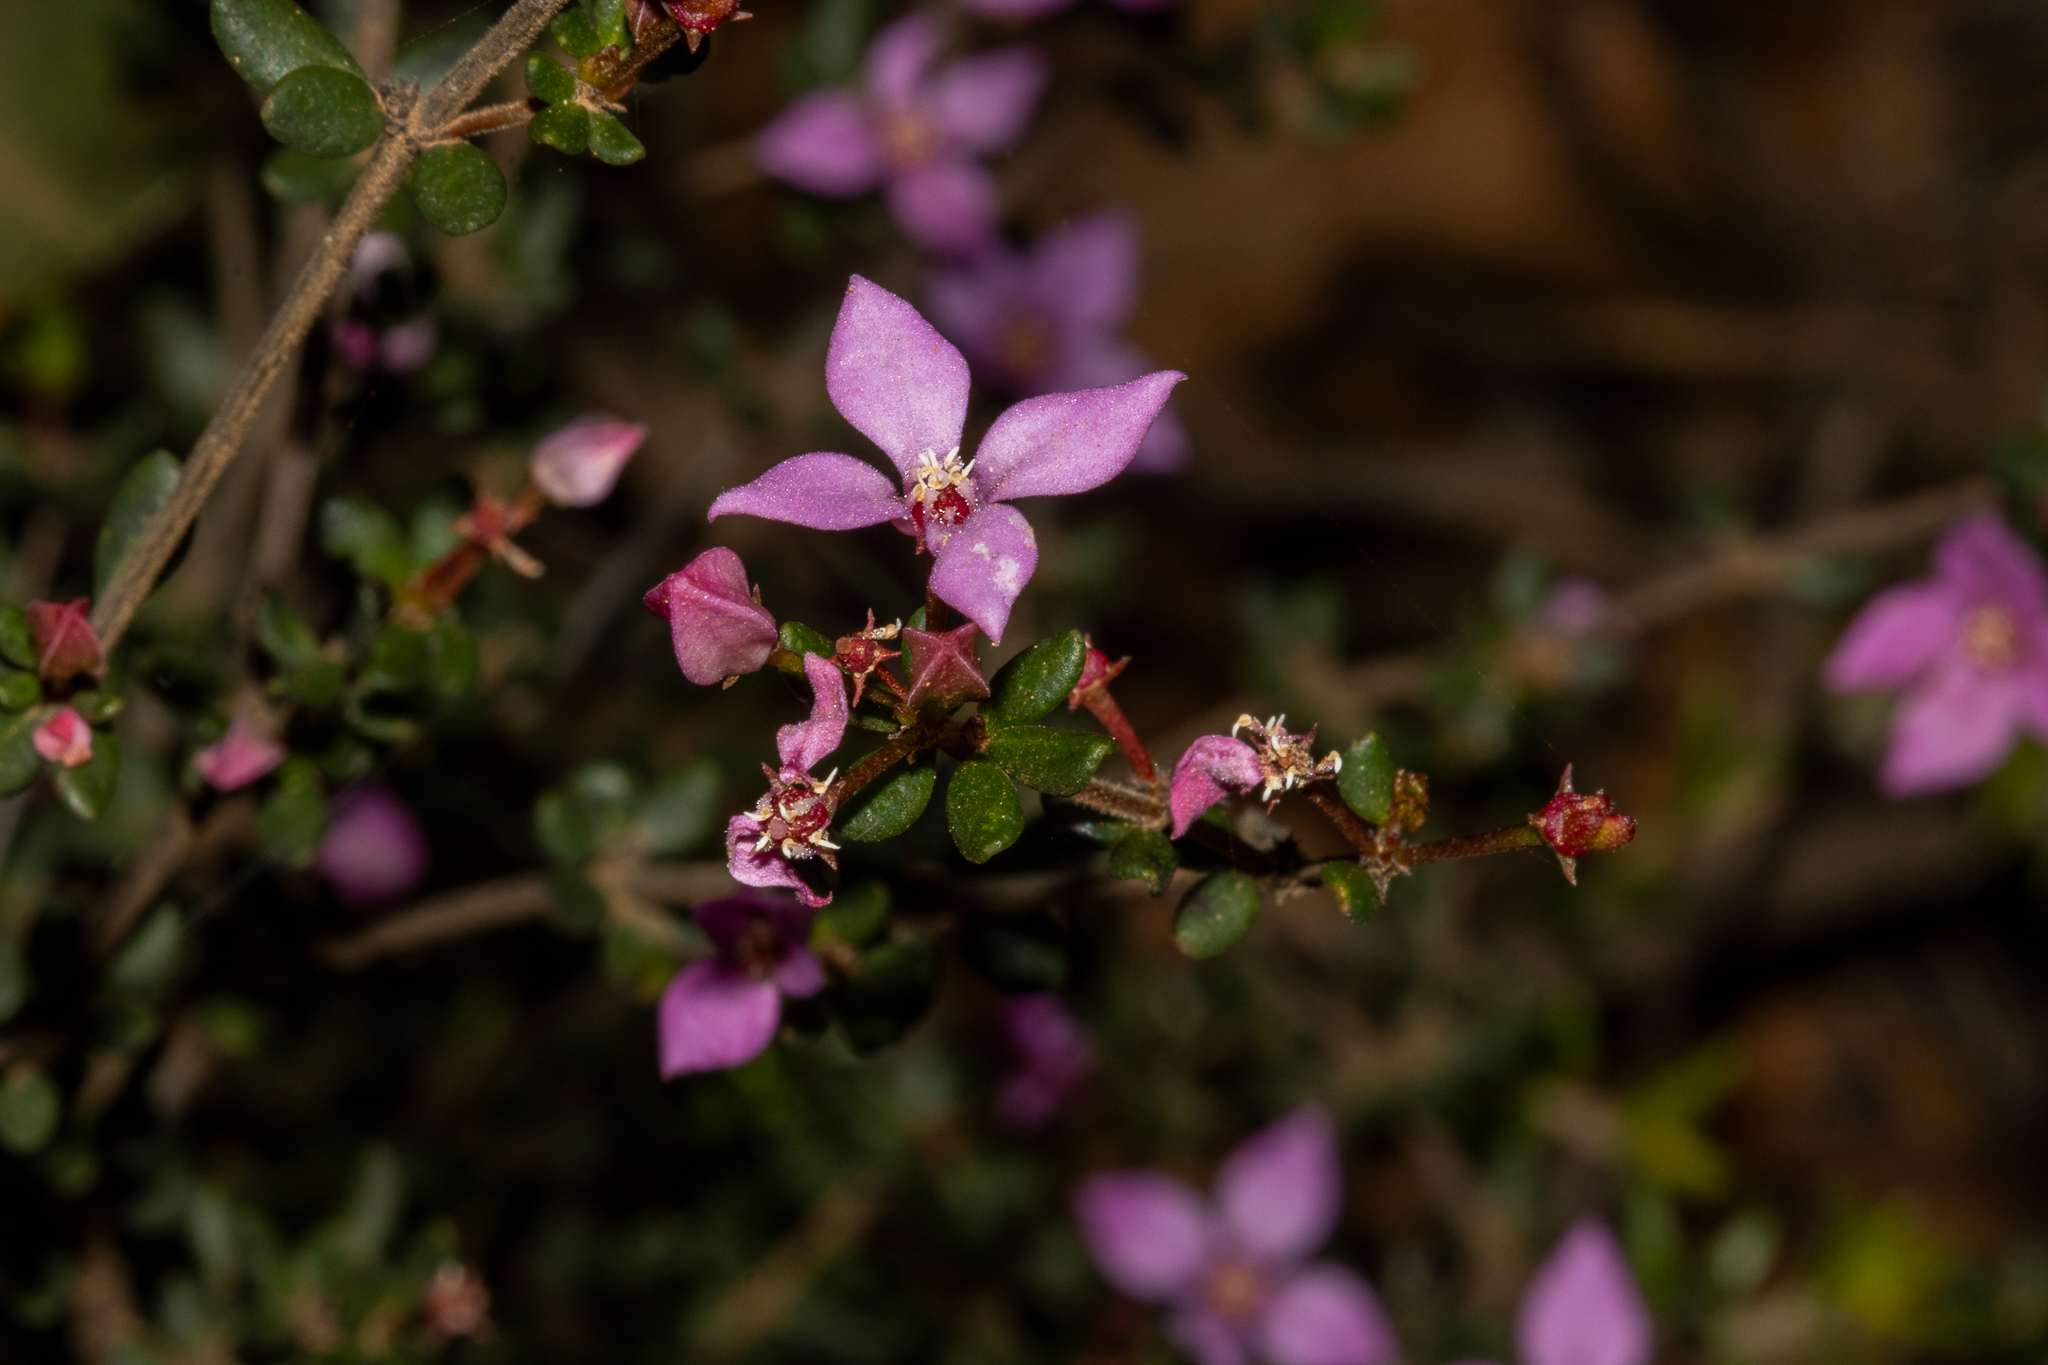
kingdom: Plantae
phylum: Tracheophyta
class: Magnoliopsida
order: Sapindales
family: Rutaceae
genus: Boronia
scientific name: Boronia edwardsii
